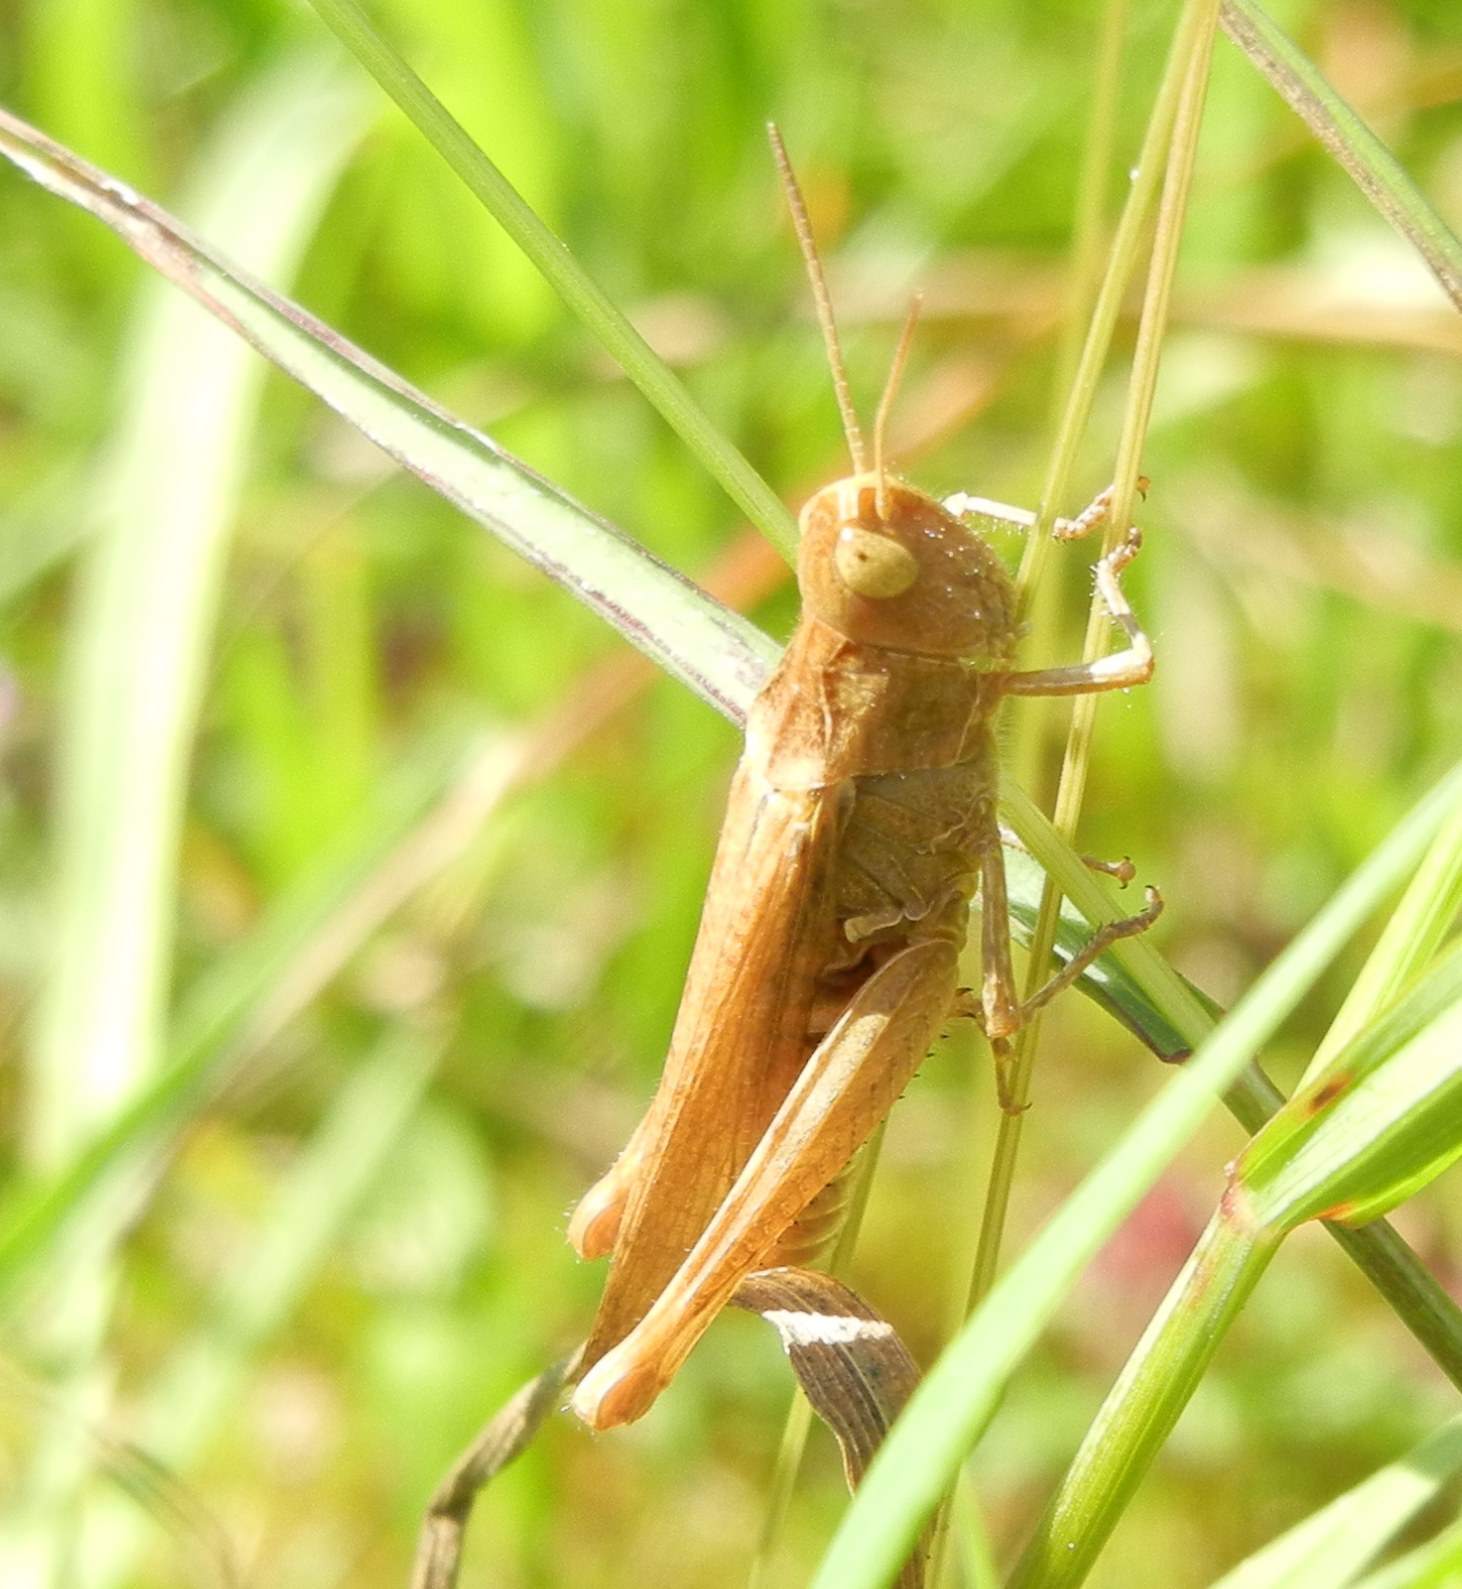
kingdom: Animalia
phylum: Arthropoda
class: Insecta
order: Orthoptera
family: Acrididae
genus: Chorthippus
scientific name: Chorthippus brunneus
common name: Field grasshopper
